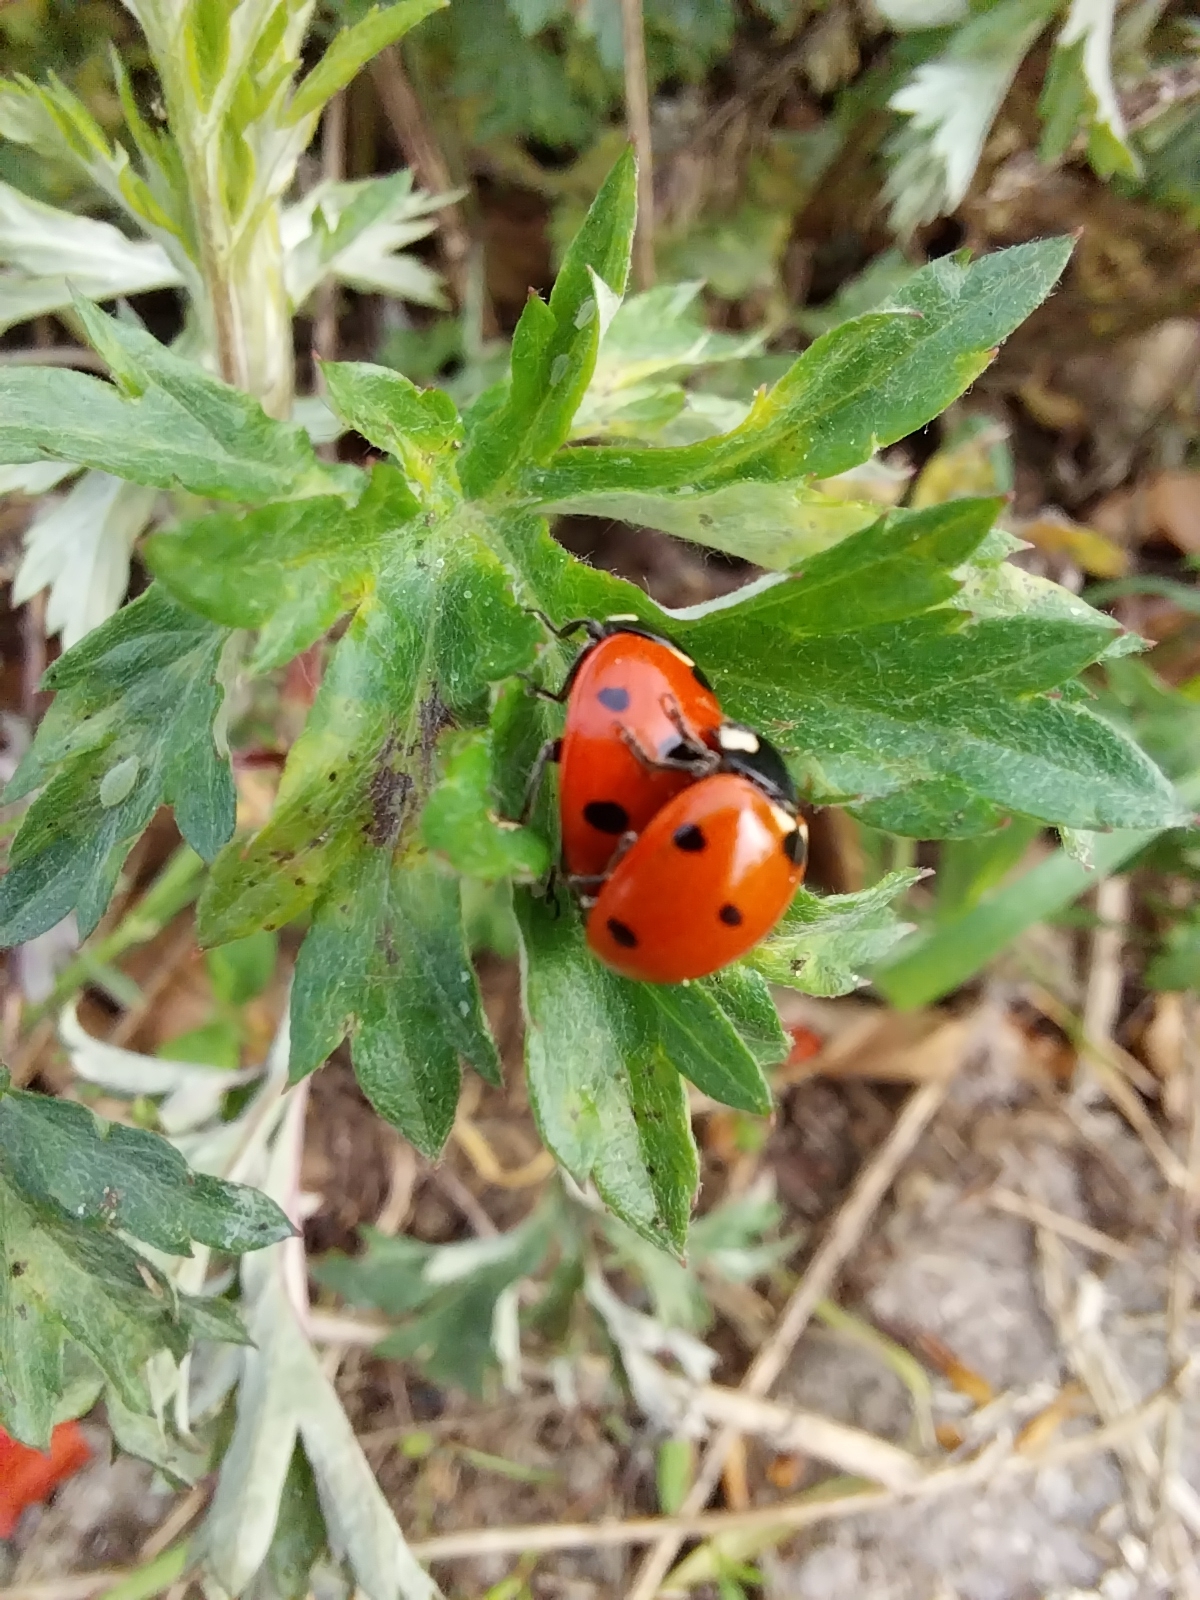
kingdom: Animalia
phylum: Arthropoda
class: Insecta
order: Coleoptera
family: Coccinellidae
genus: Coccinella
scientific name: Coccinella septempunctata
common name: Sevenspotted lady beetle
